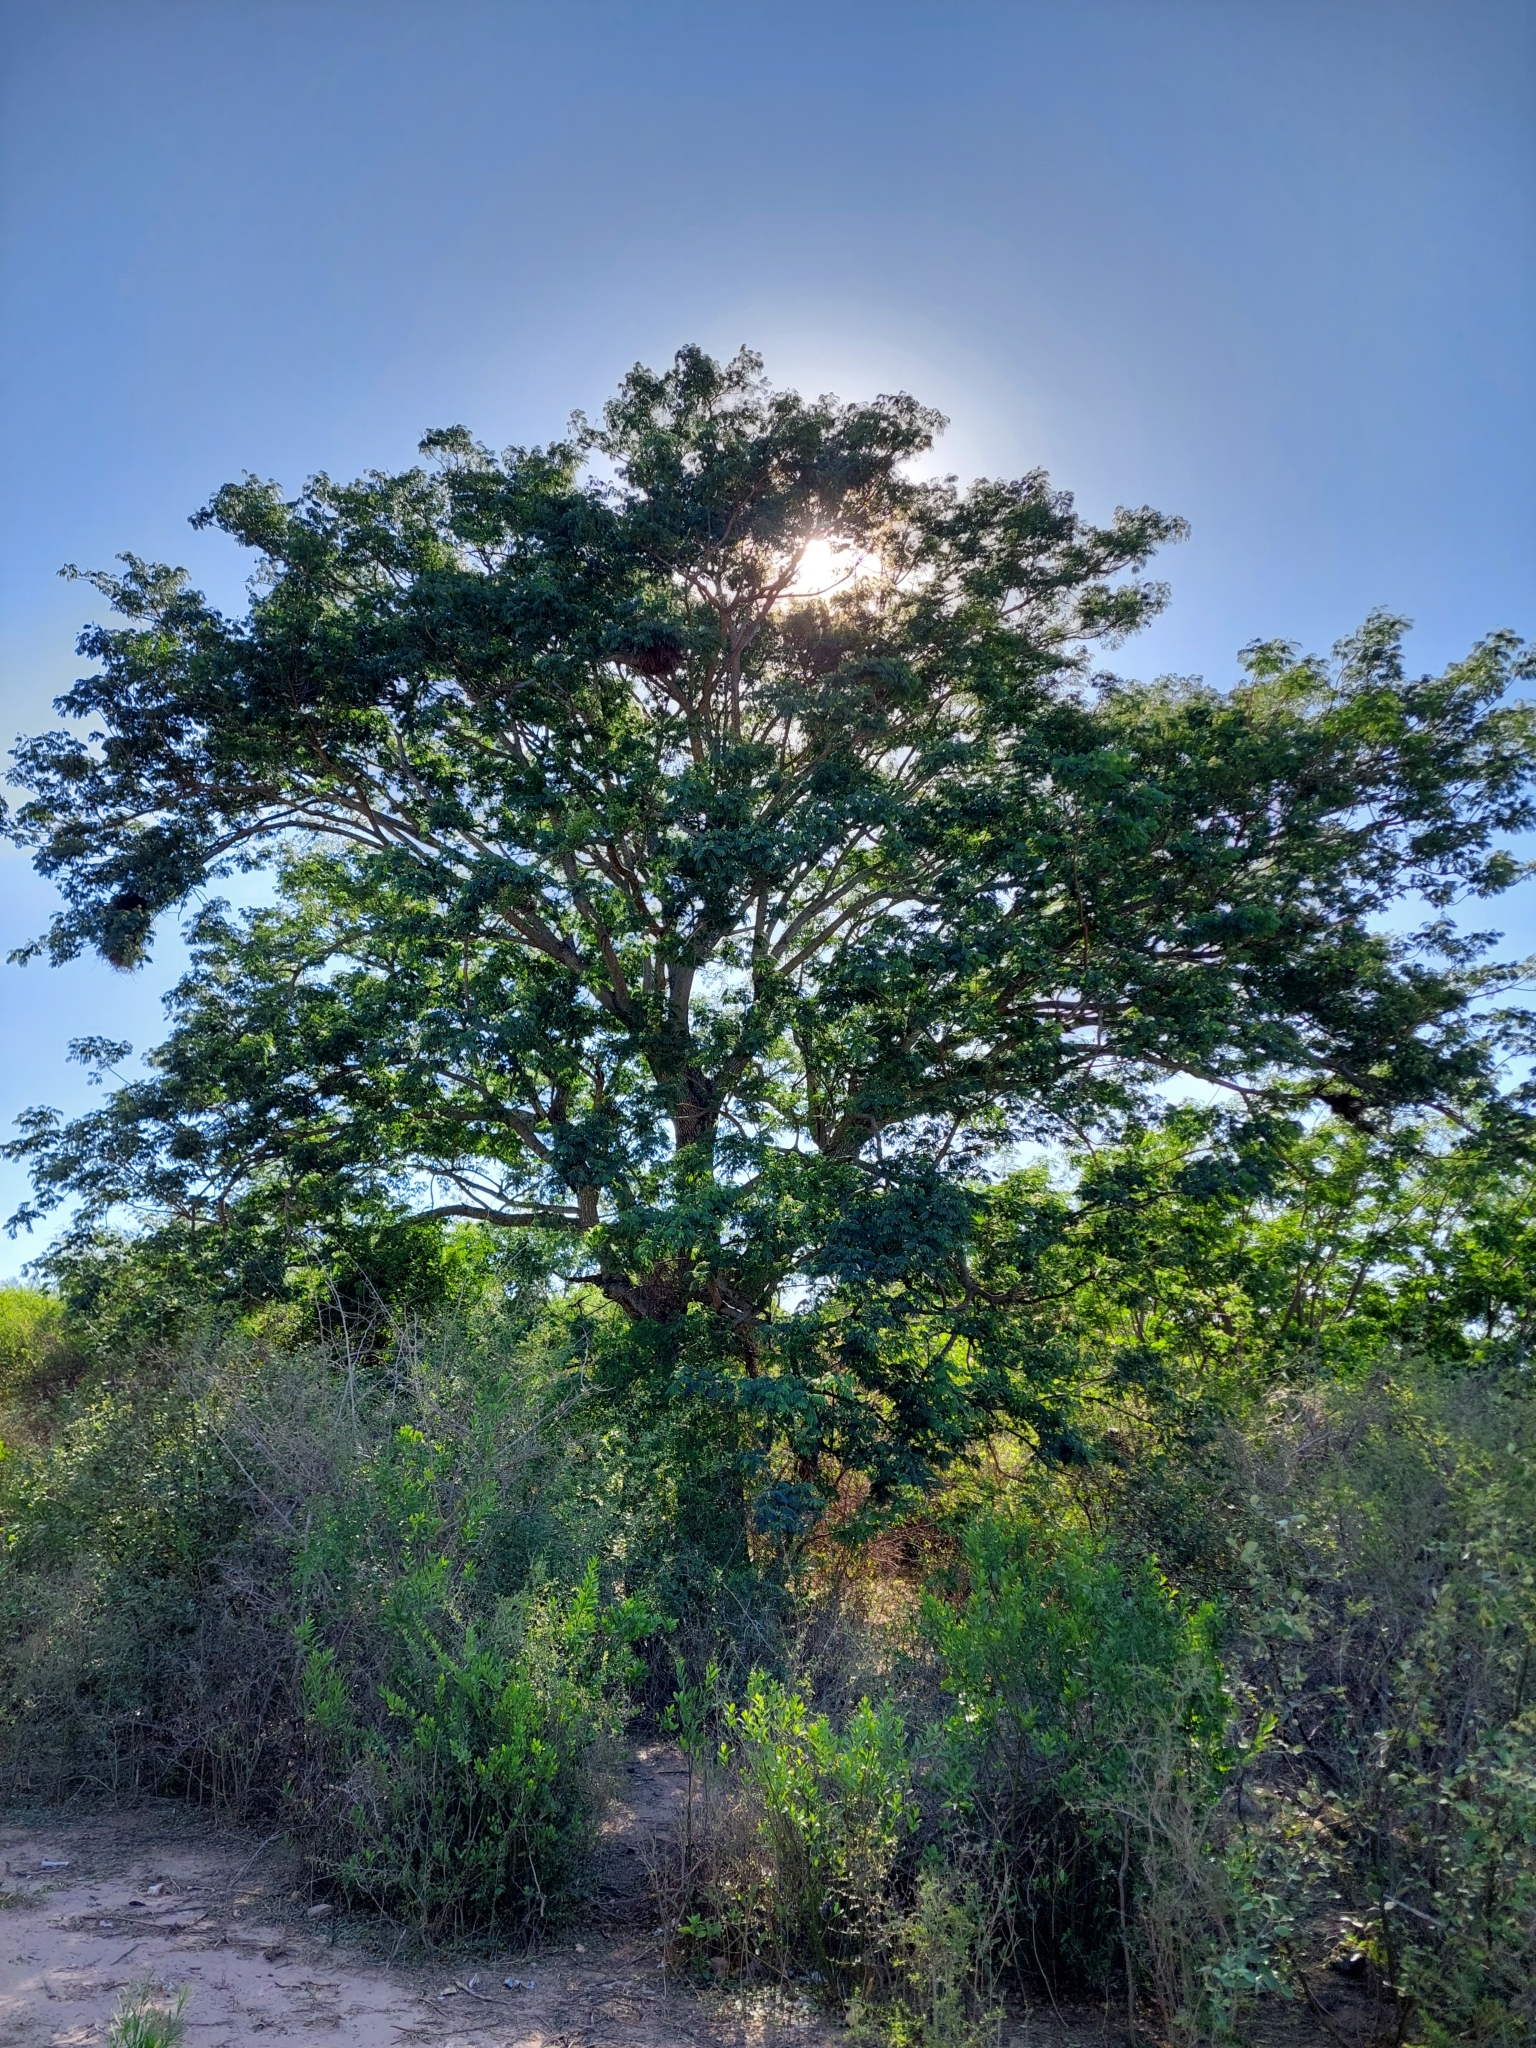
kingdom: Plantae
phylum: Tracheophyta
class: Magnoliopsida
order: Fabales
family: Fabaceae
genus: Enterolobium
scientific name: Enterolobium contortisiliquum
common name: Pacara earpod tree
